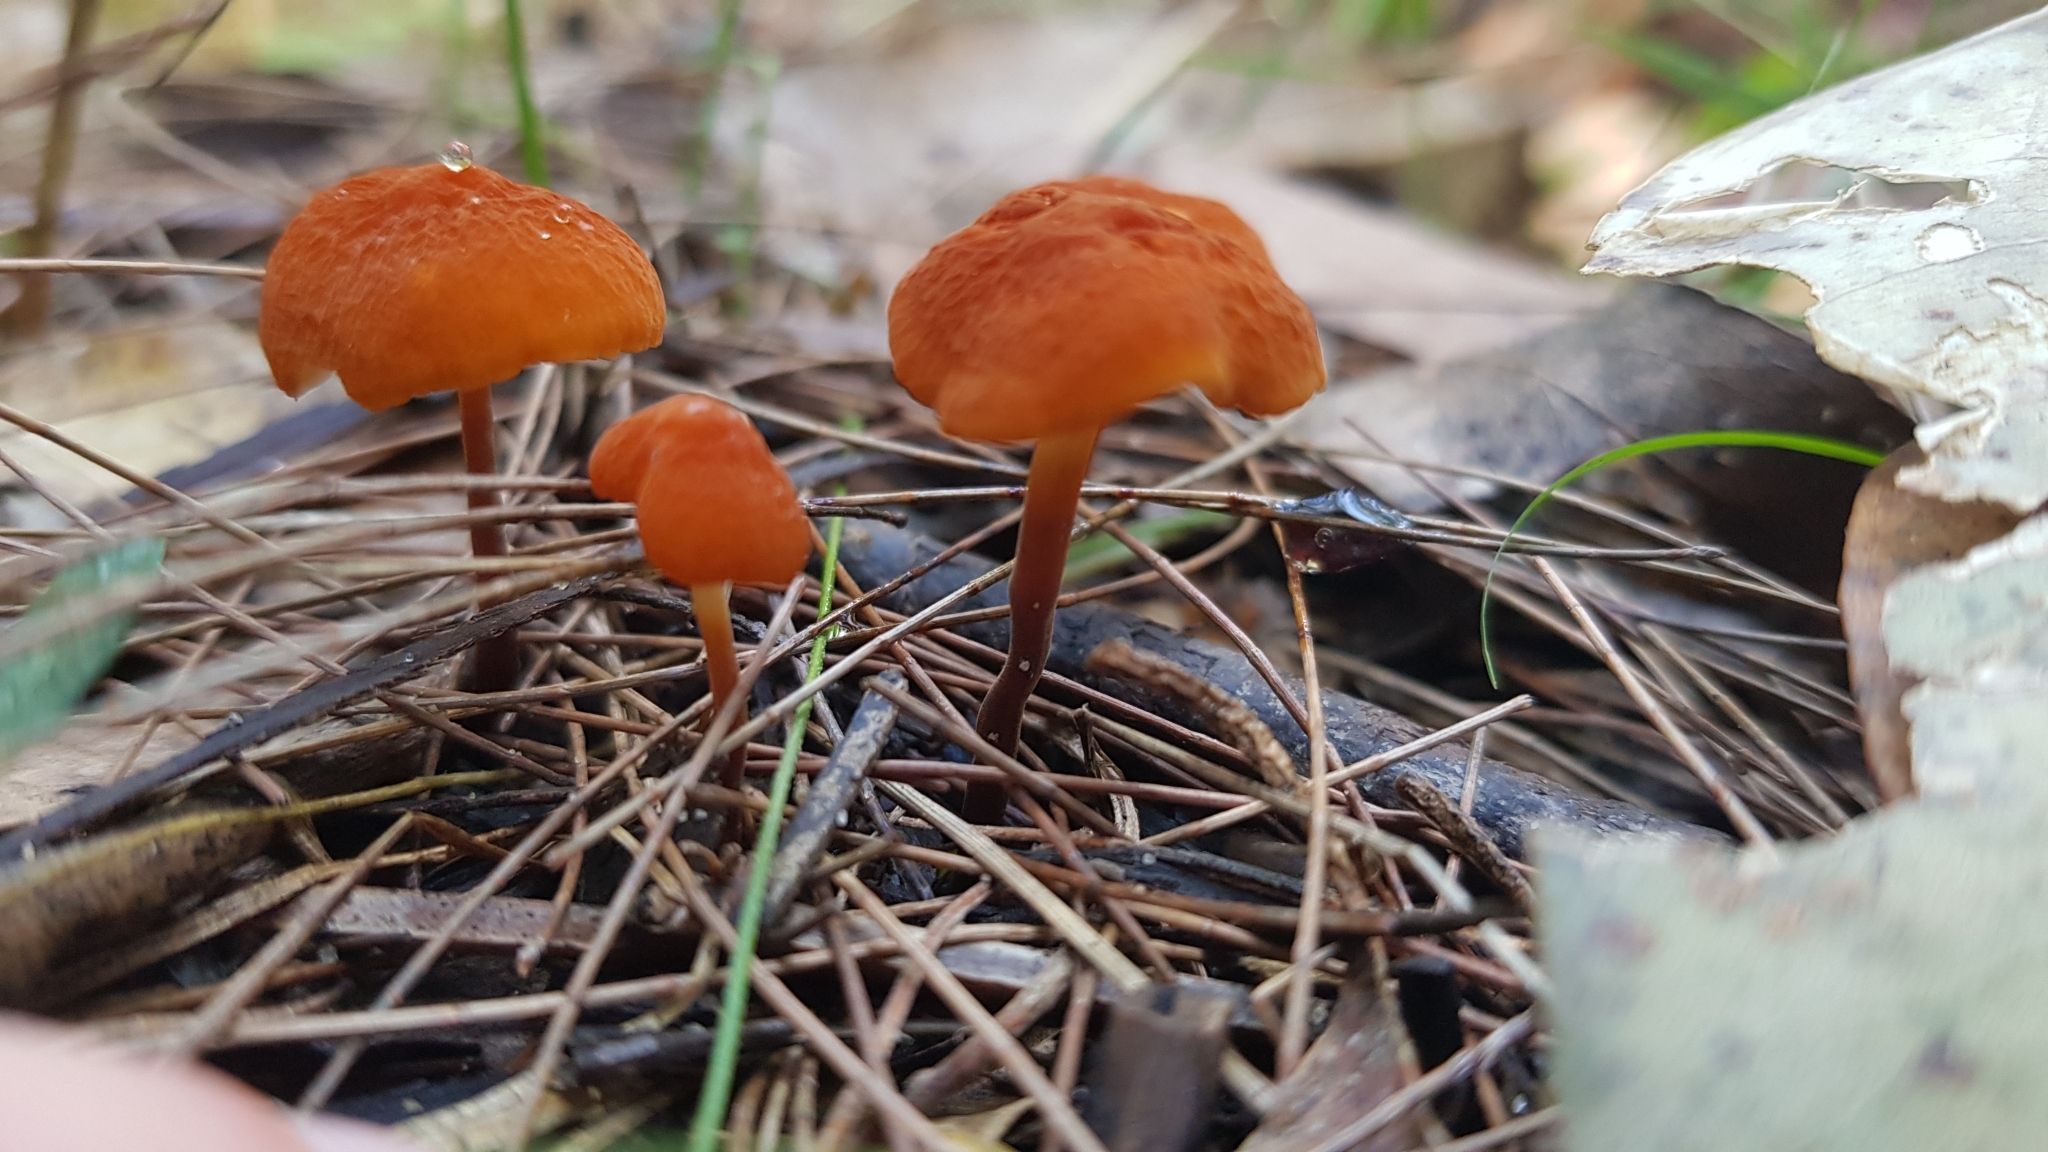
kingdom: Fungi
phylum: Basidiomycota
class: Agaricomycetes
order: Agaricales
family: Marasmiaceae
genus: Marasmius
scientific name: Marasmius elegans
